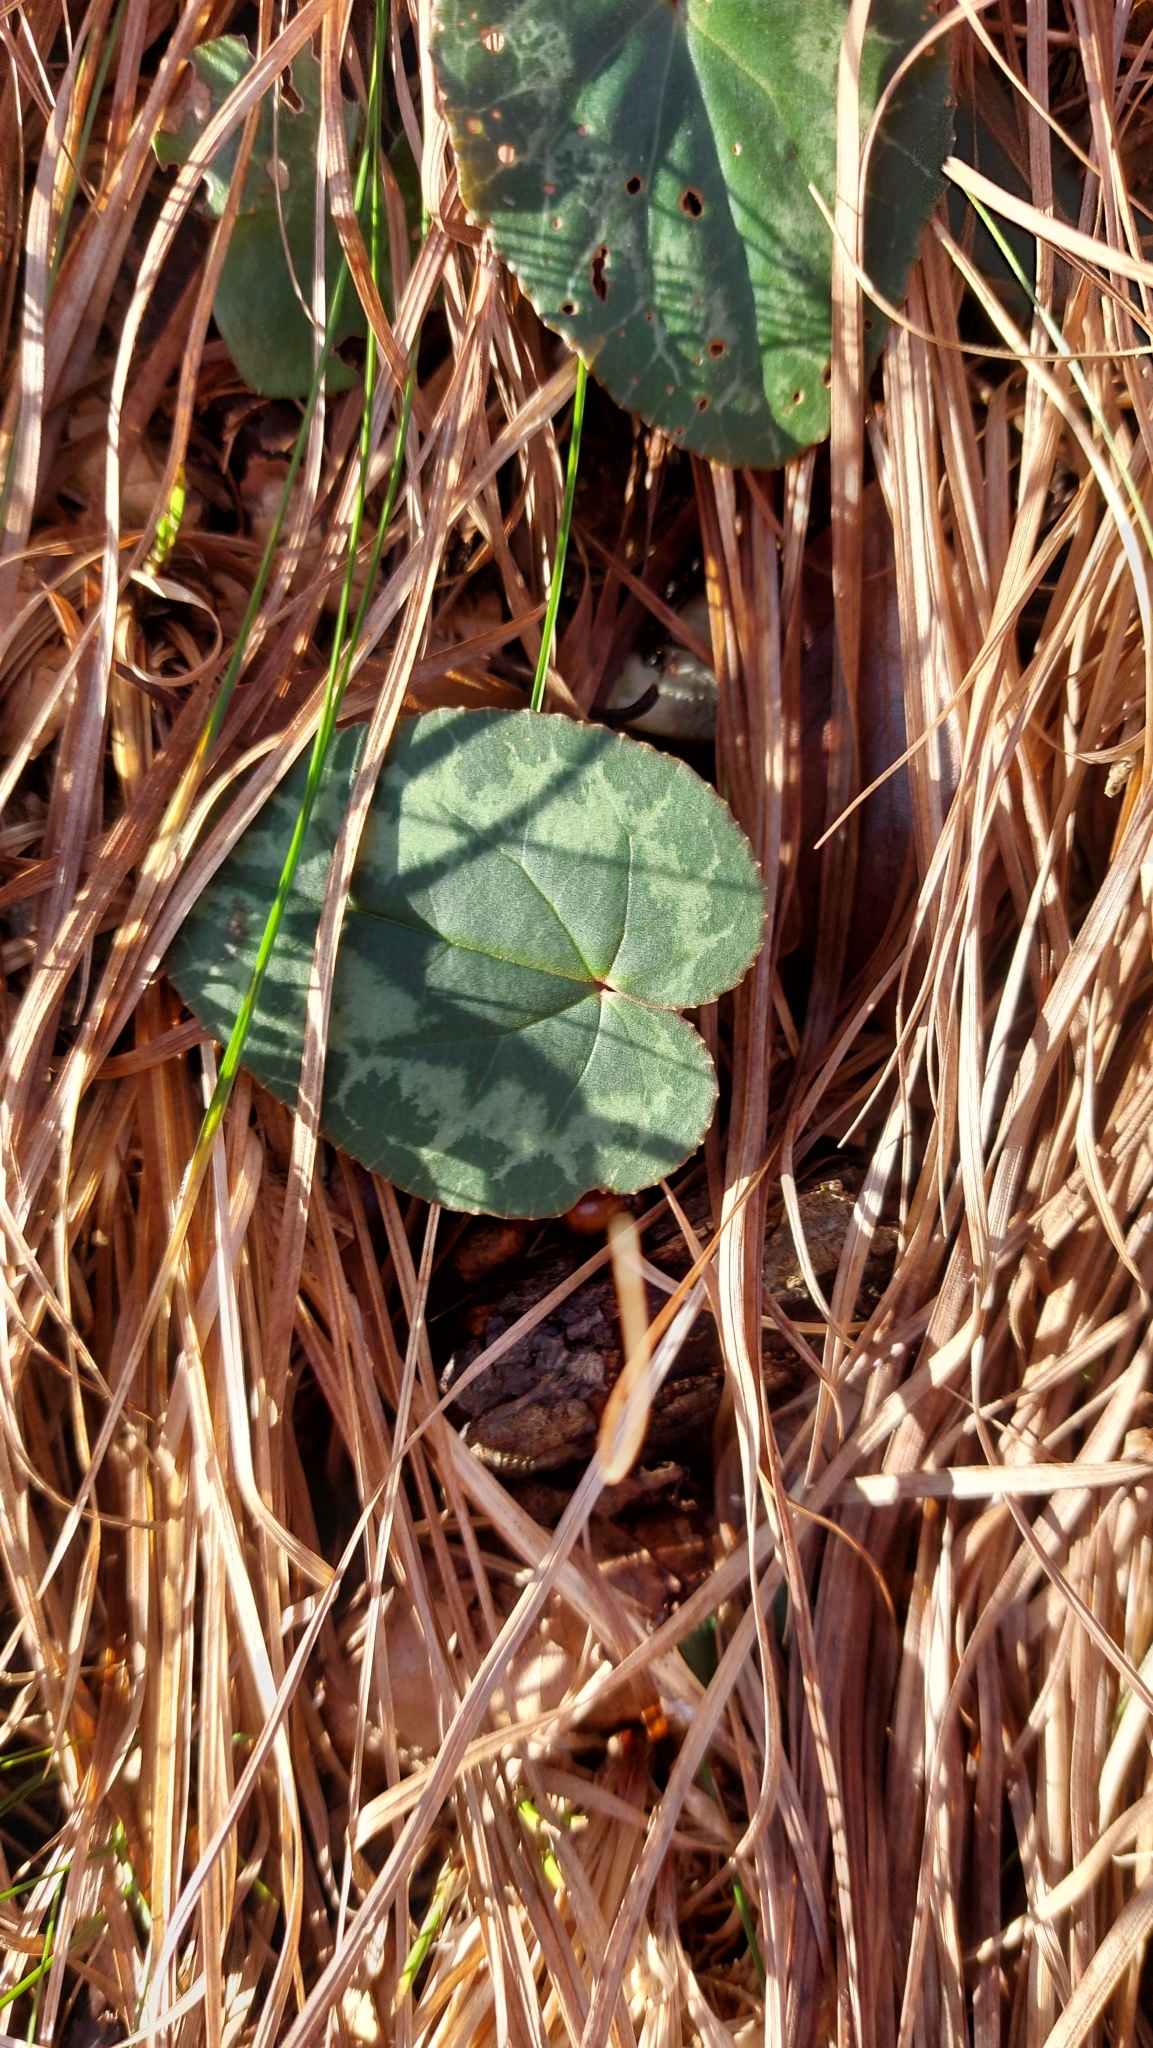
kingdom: Plantae
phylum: Tracheophyta
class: Magnoliopsida
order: Ericales
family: Primulaceae
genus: Cyclamen
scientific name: Cyclamen purpurascens
